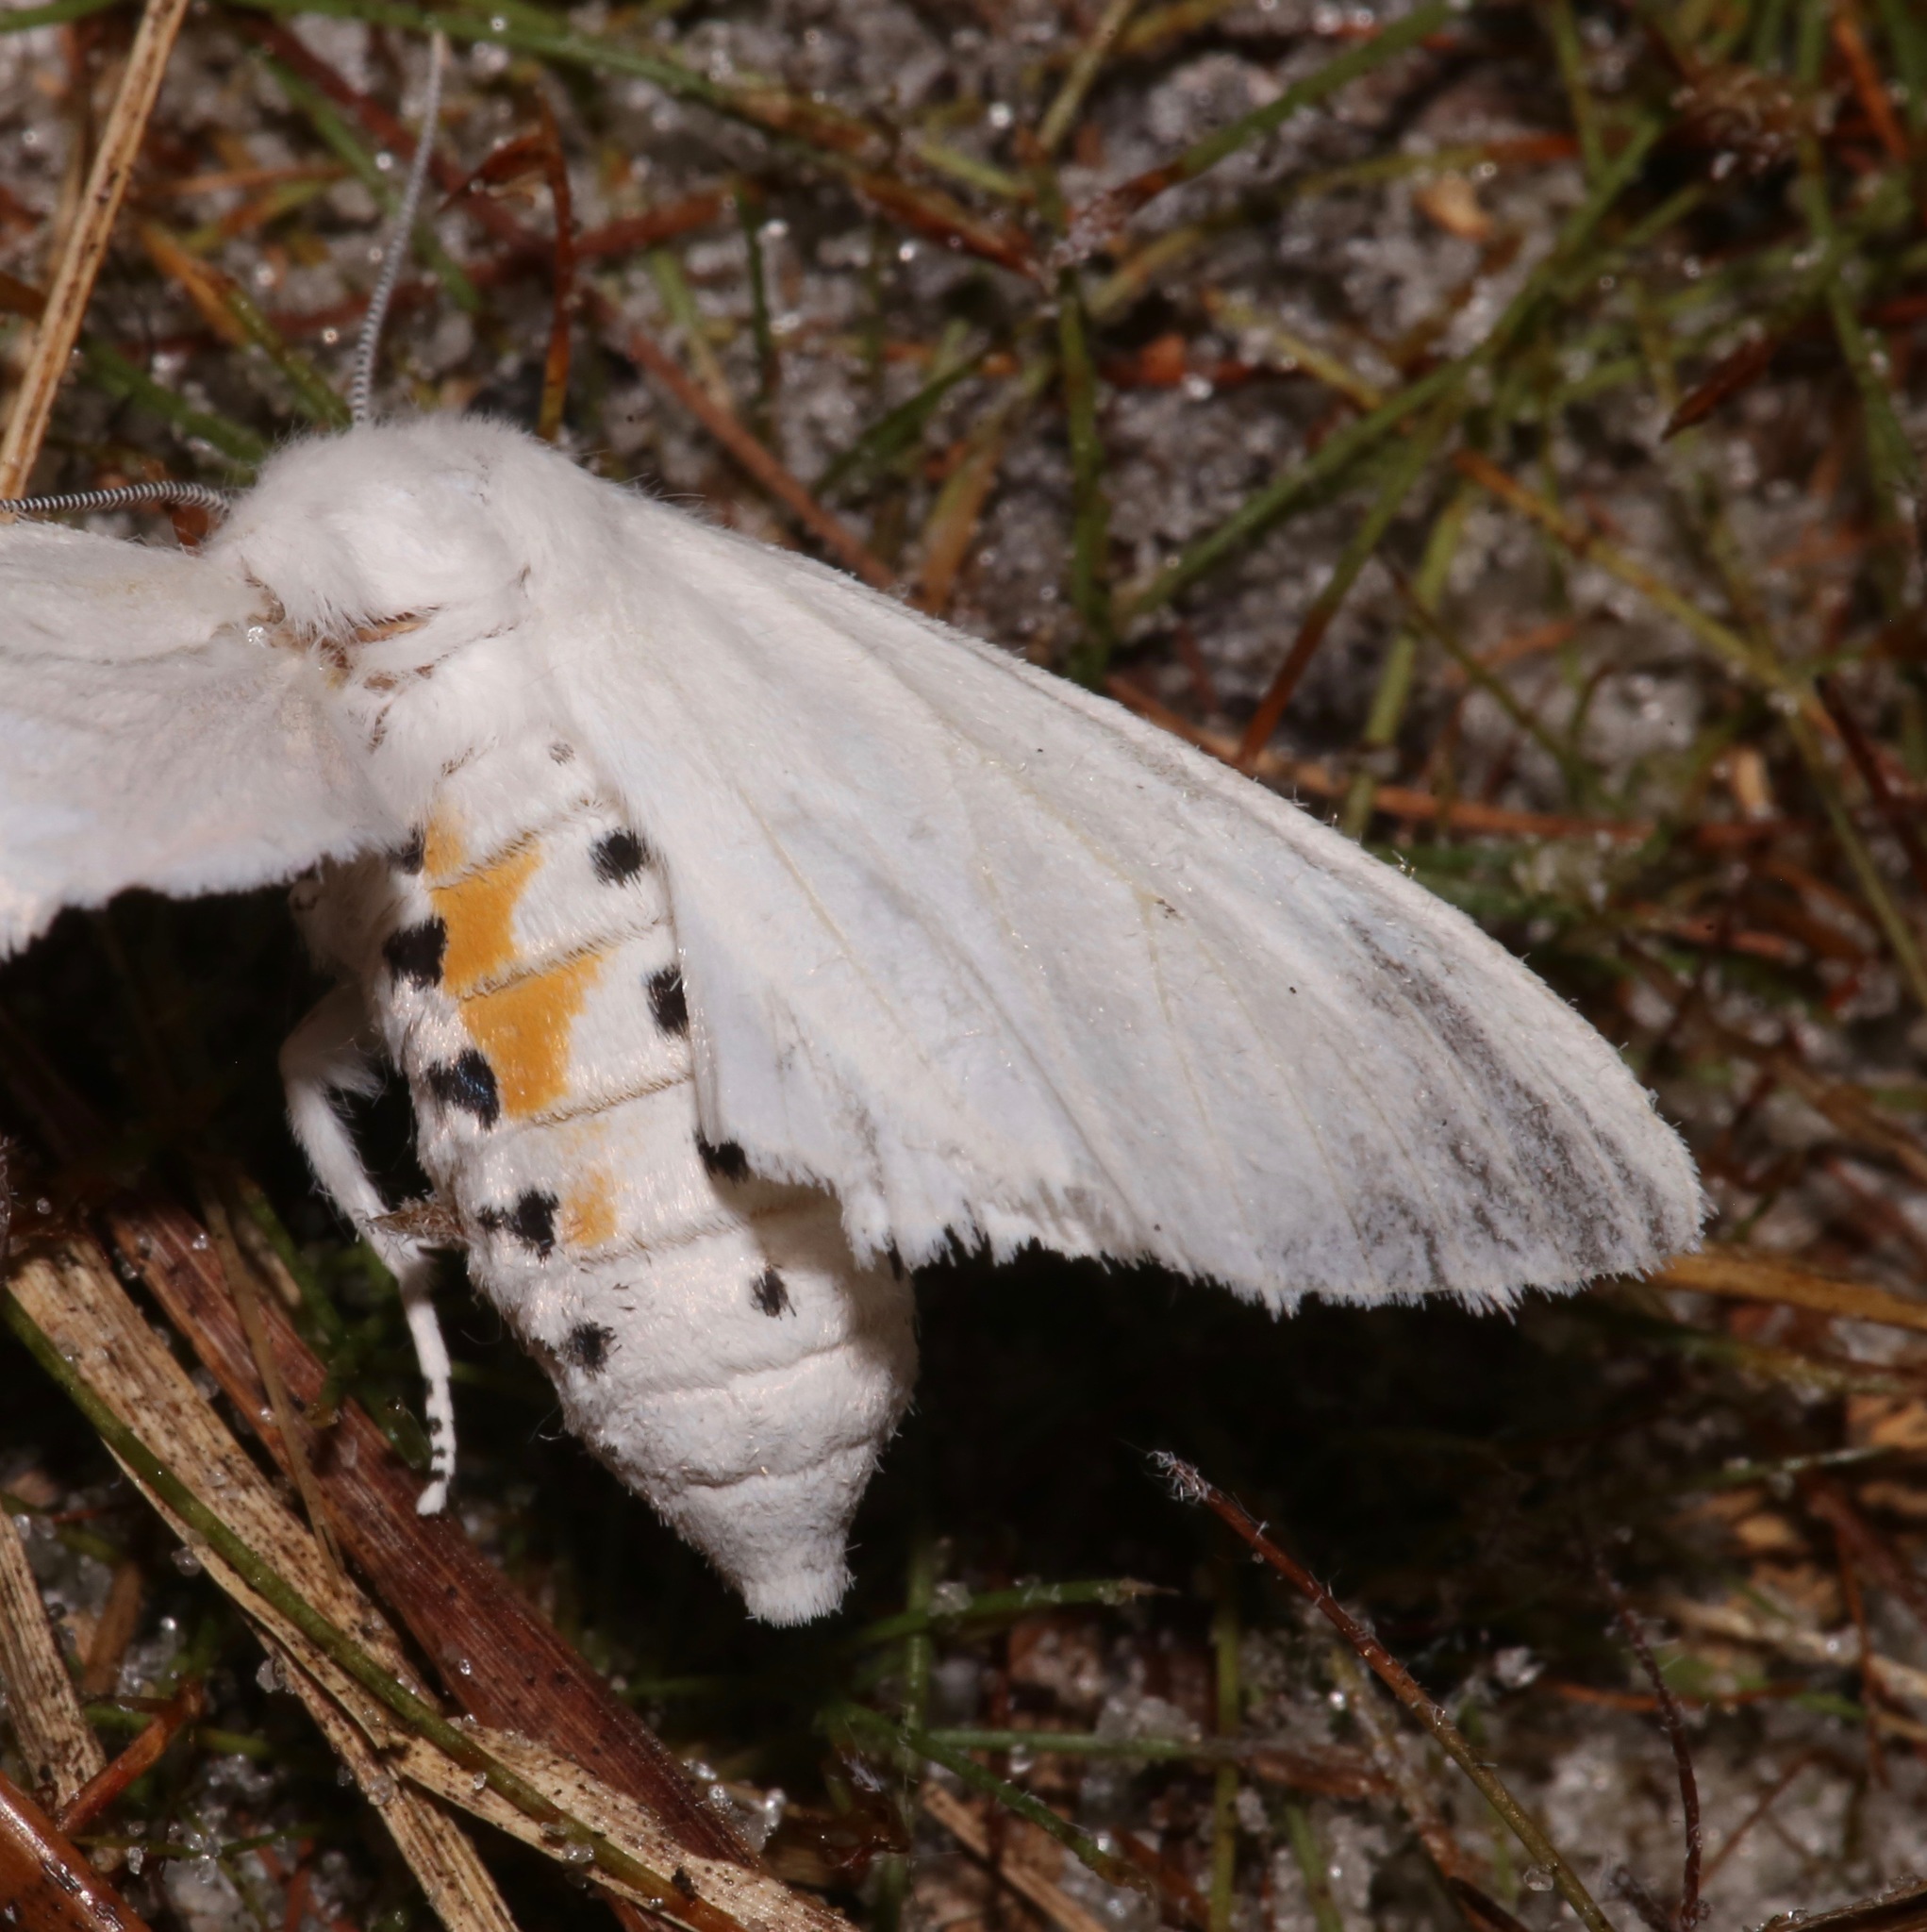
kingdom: Animalia
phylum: Arthropoda
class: Insecta
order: Lepidoptera
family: Erebidae
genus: Spilosoma
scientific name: Spilosoma virginica
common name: Virginia tiger moth
